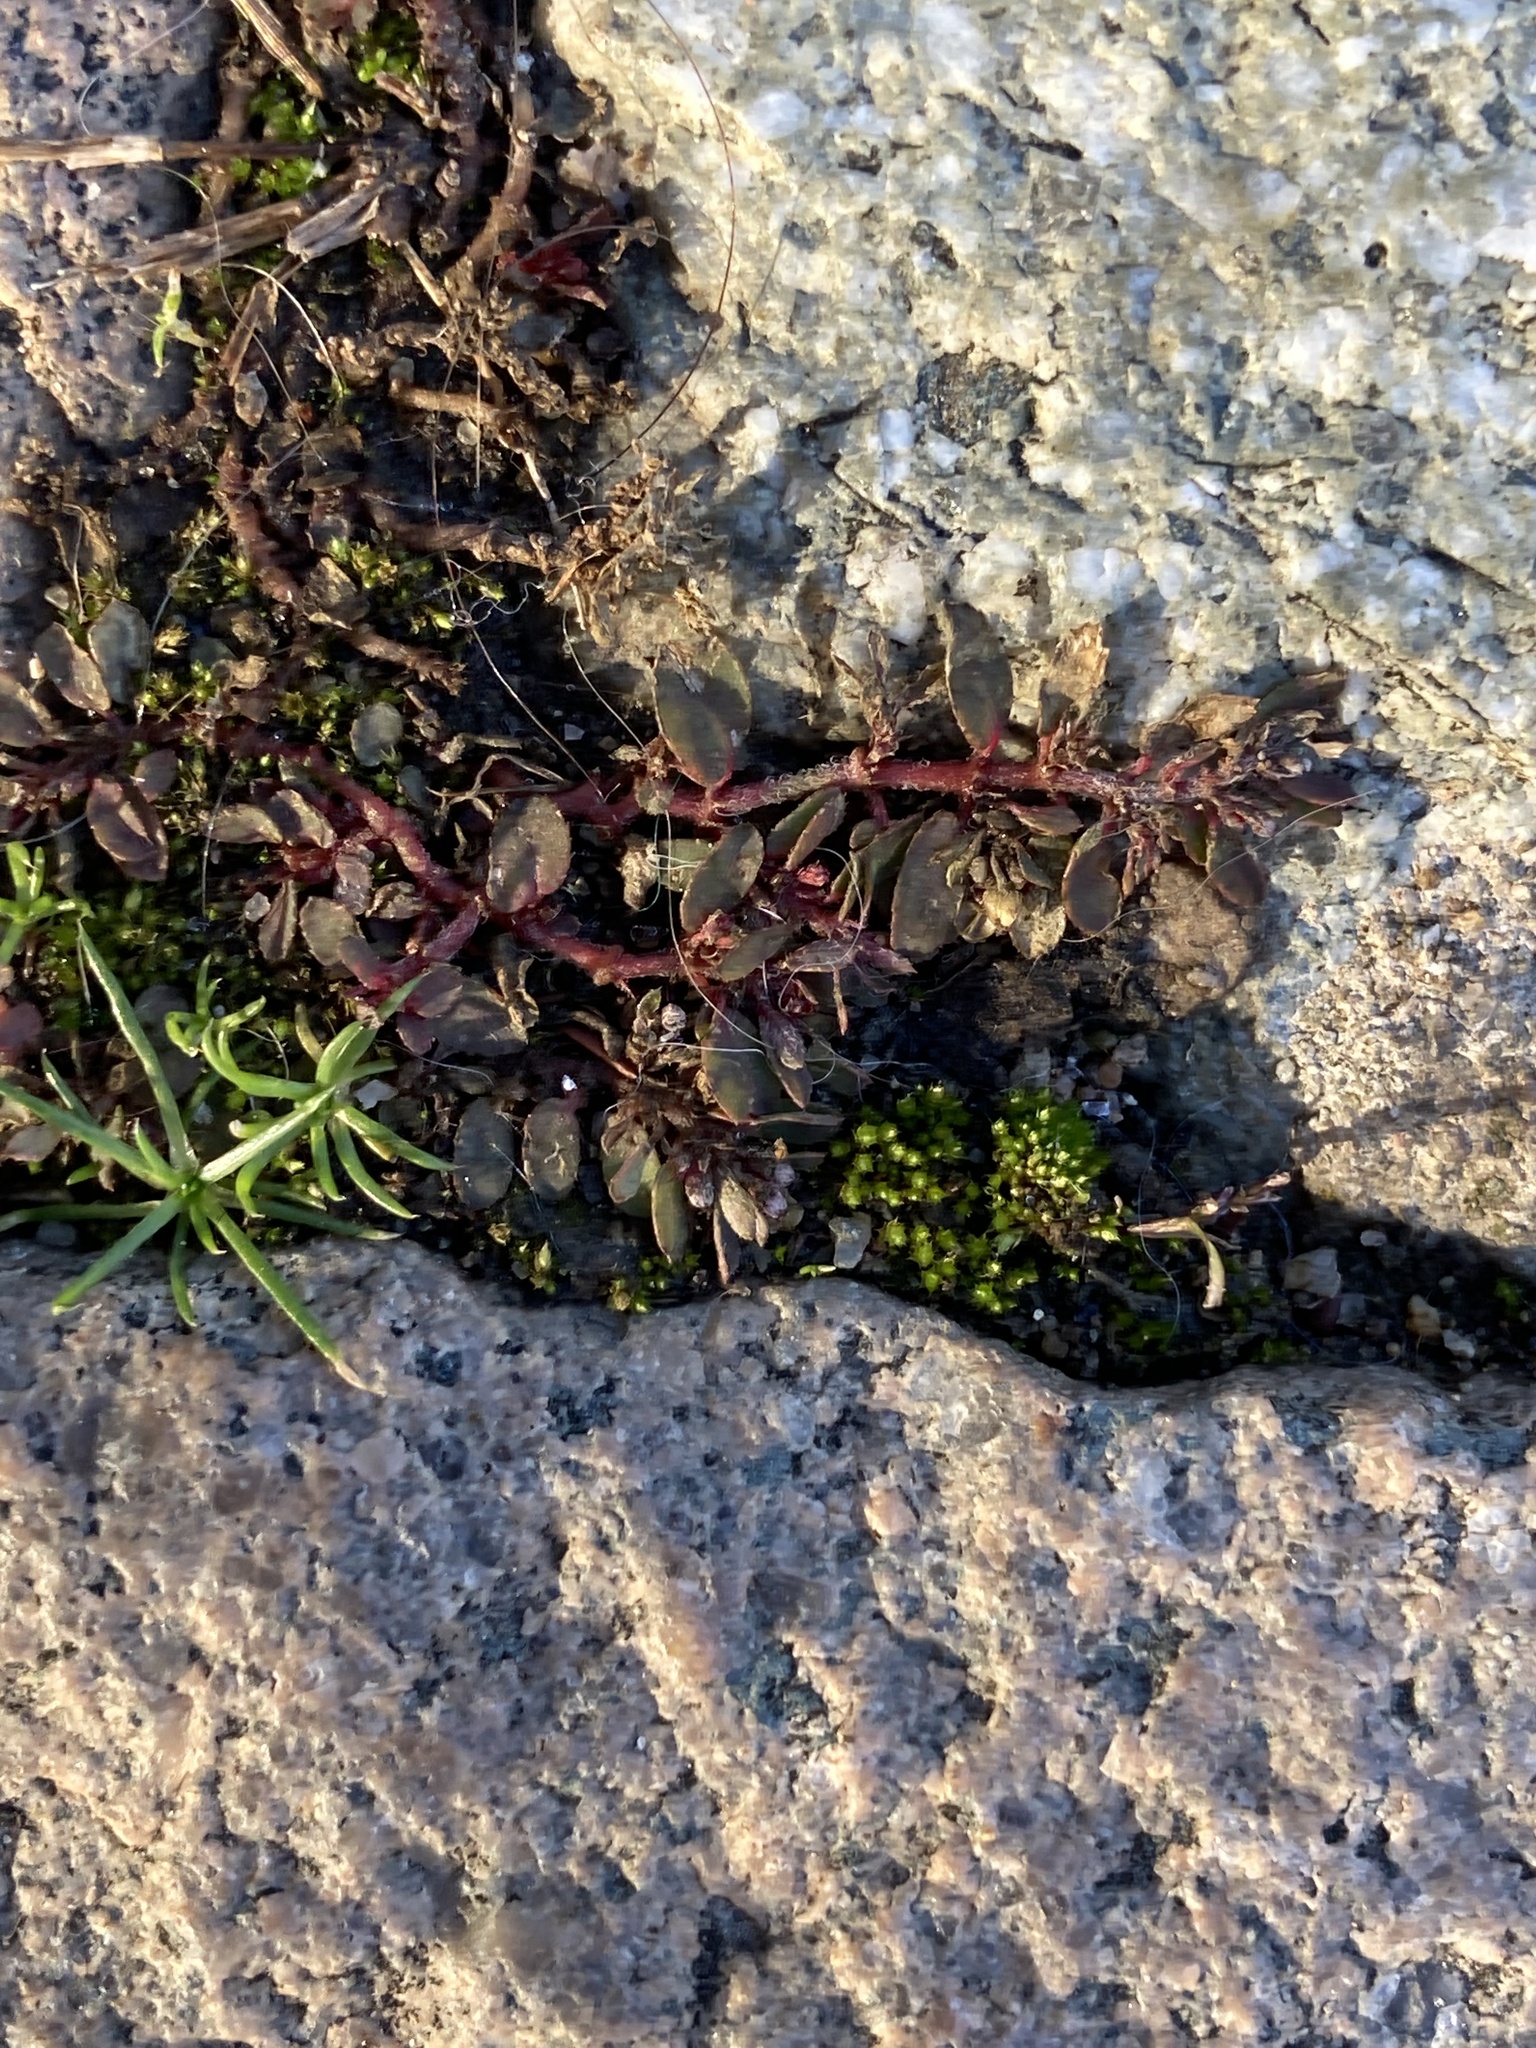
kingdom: Plantae
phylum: Tracheophyta
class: Magnoliopsida
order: Malpighiales
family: Euphorbiaceae
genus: Euphorbia
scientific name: Euphorbia maculata
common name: Spotted spurge
